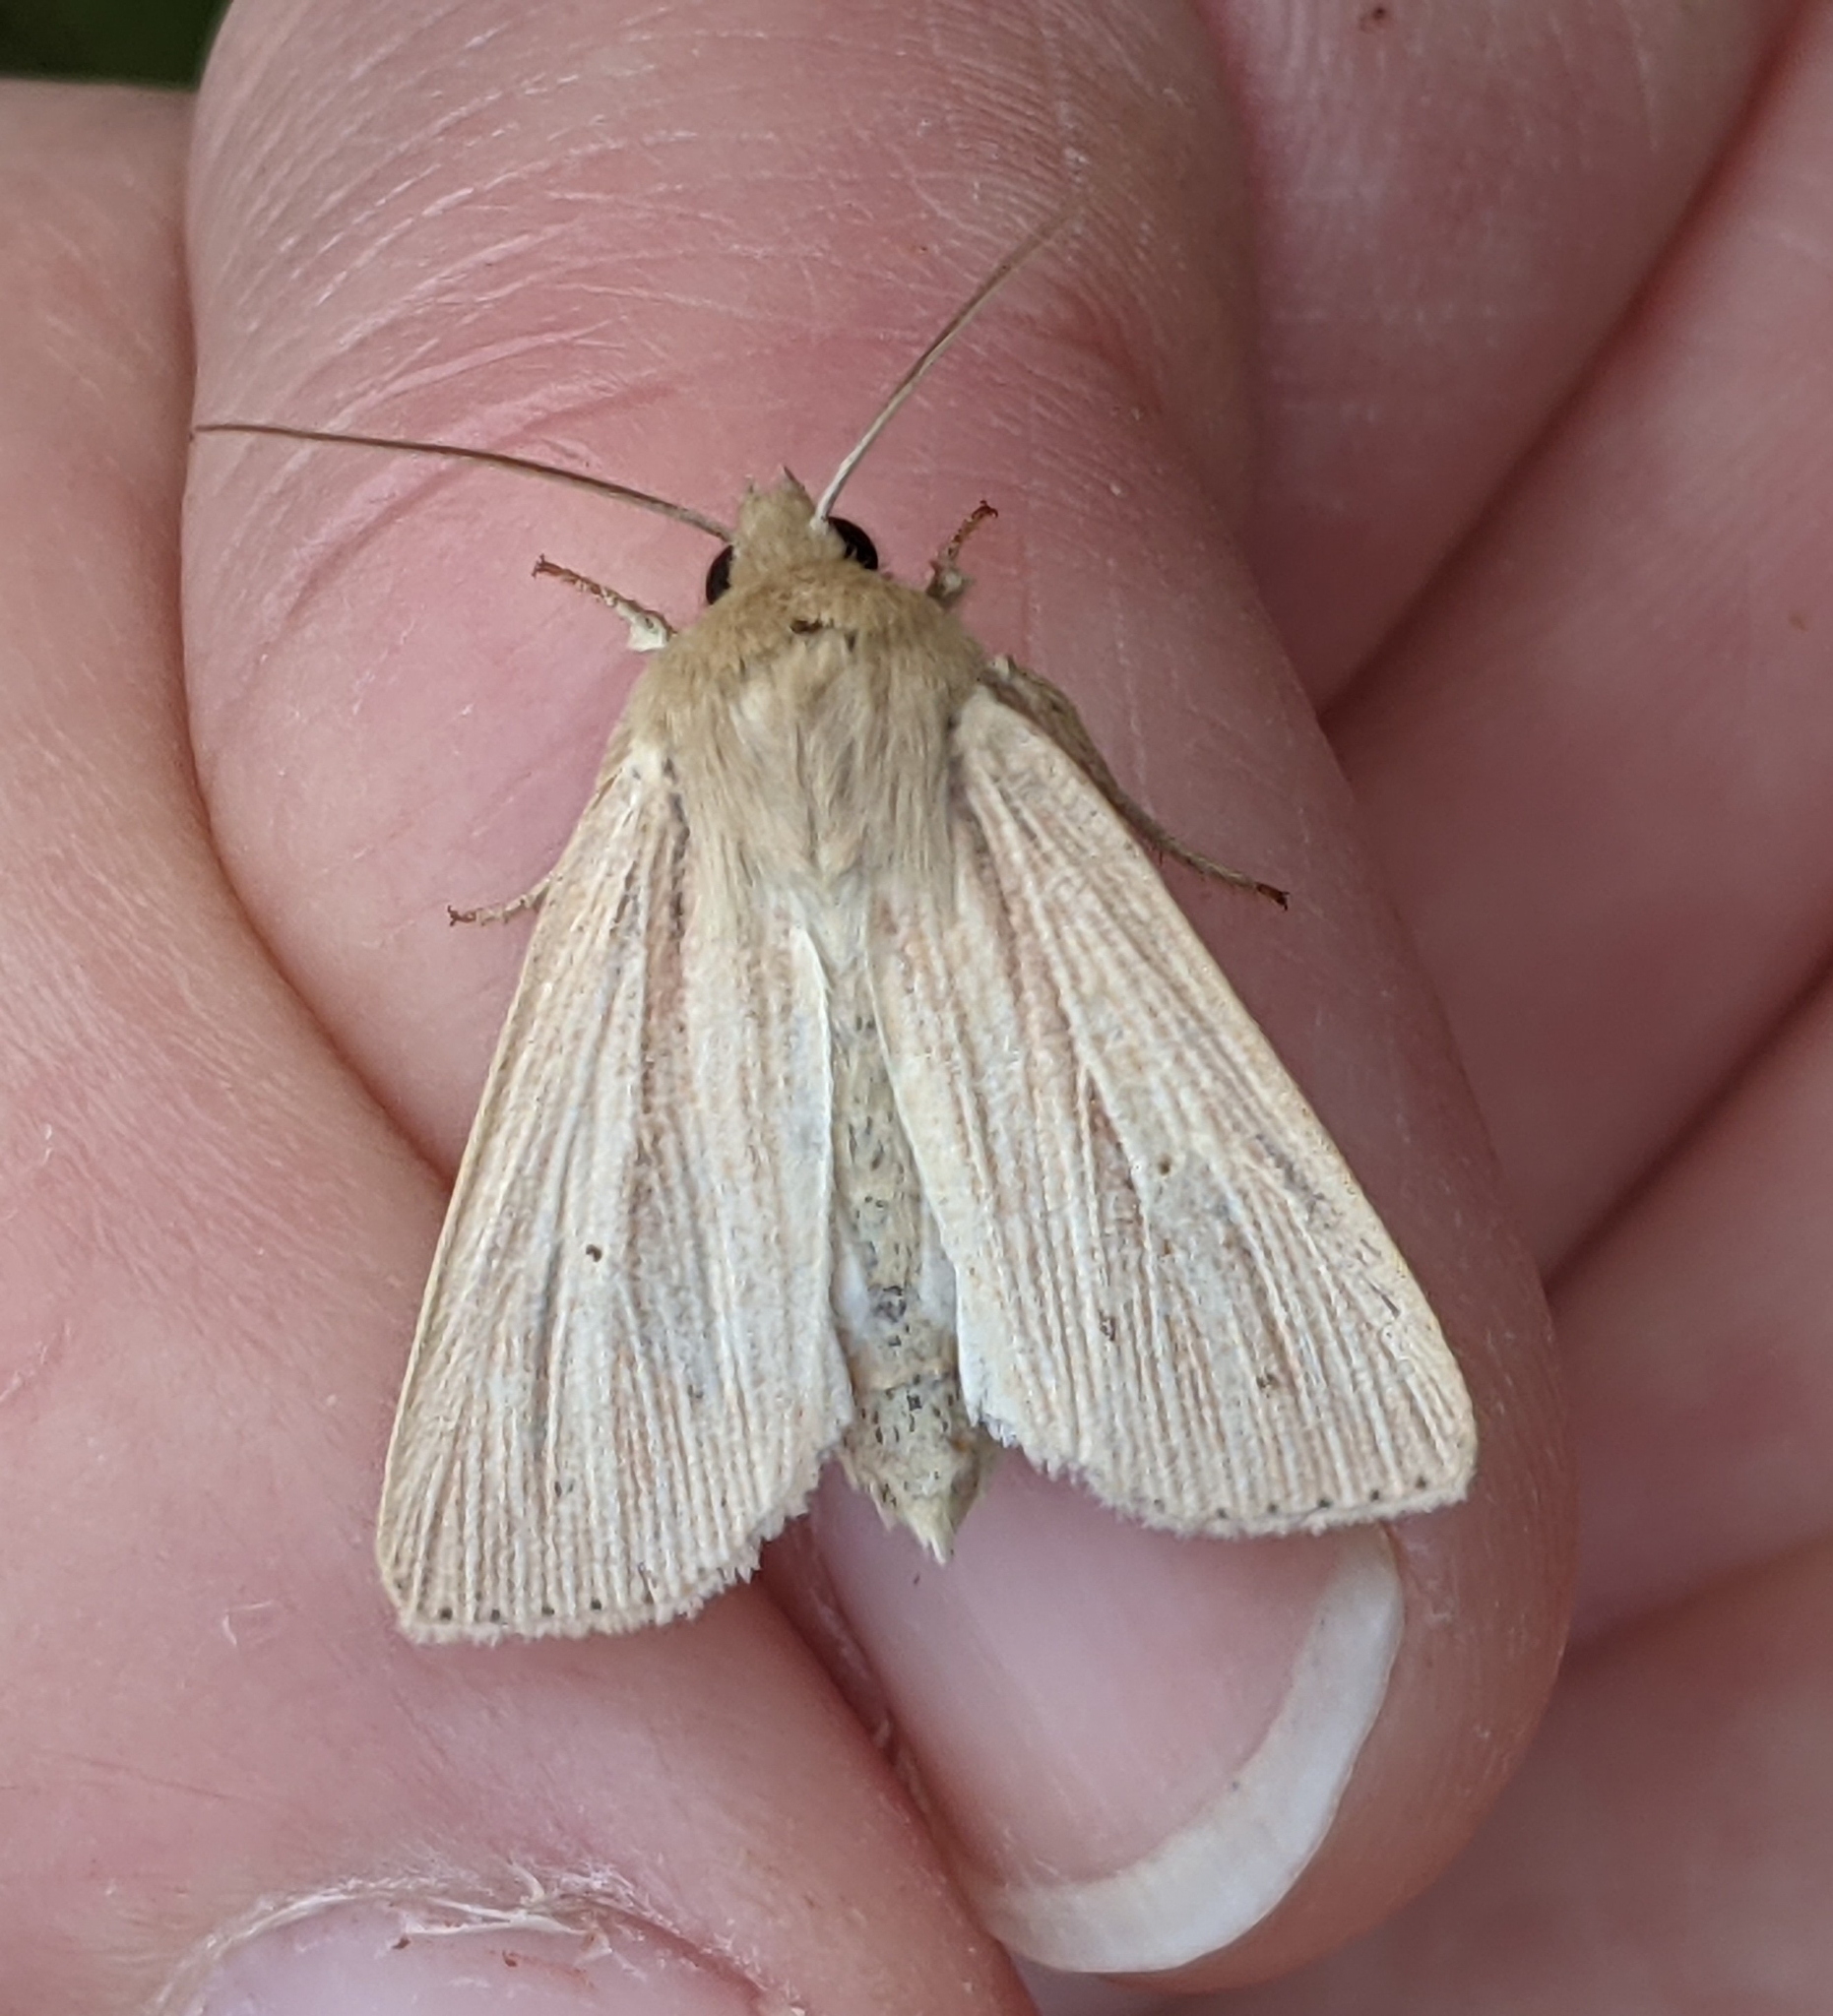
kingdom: Animalia
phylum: Arthropoda
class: Insecta
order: Lepidoptera
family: Noctuidae
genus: Mythimna
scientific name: Mythimna oxygala
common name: Lesser wainscot
